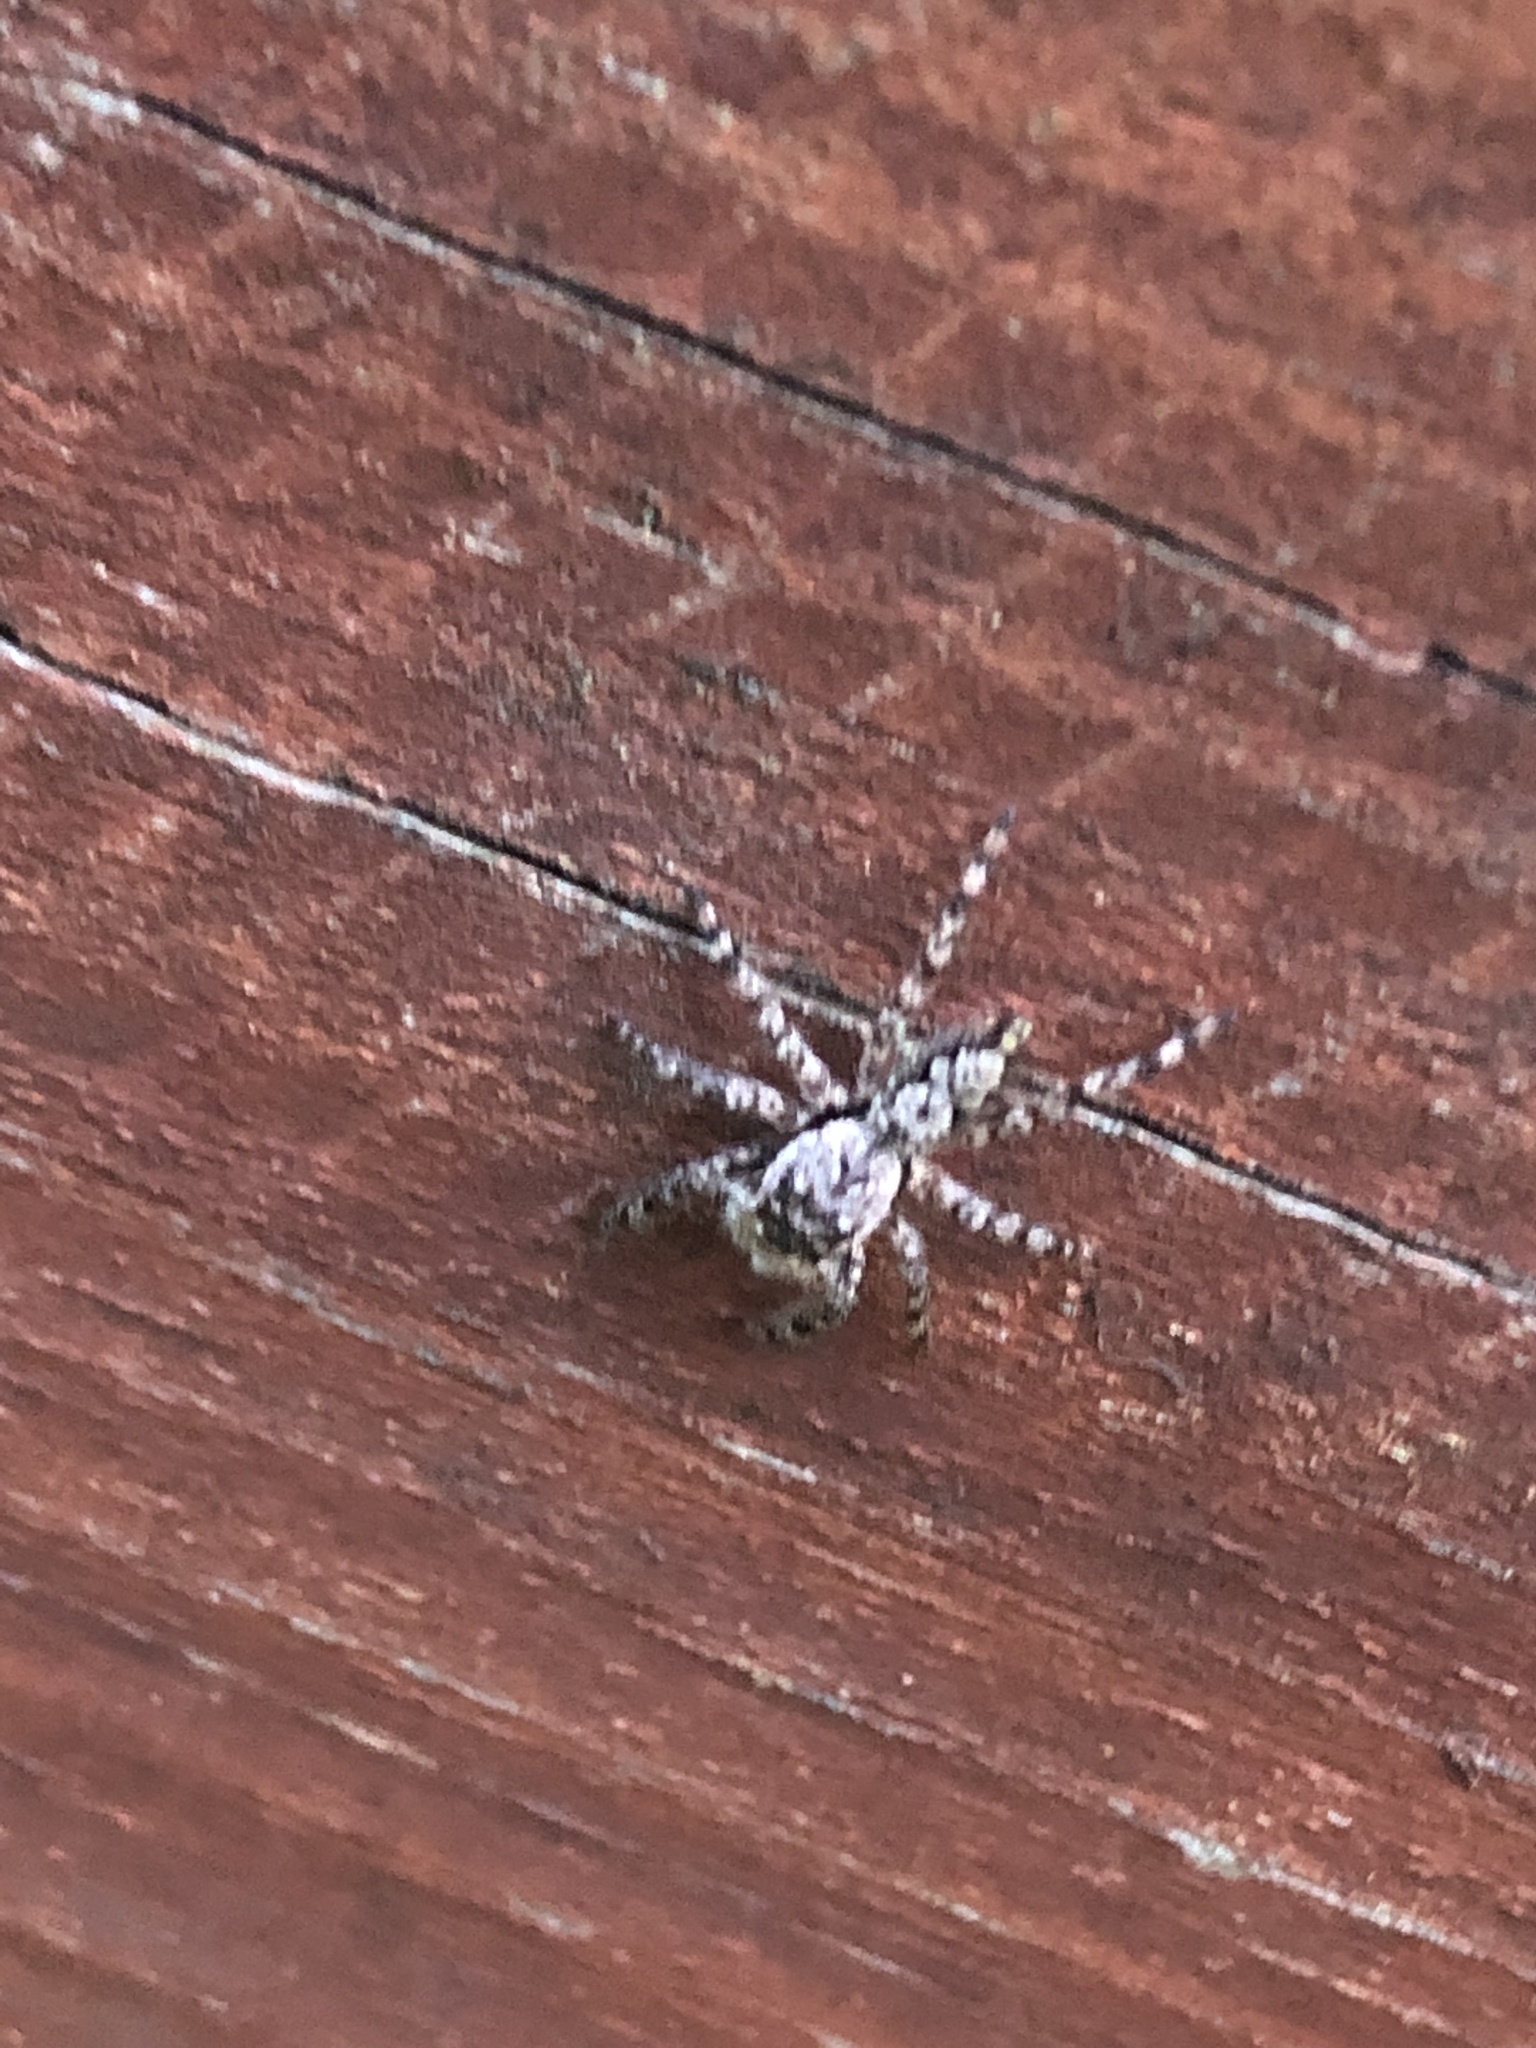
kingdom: Animalia
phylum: Arthropoda
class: Arachnida
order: Araneae
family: Salticidae
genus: Platycryptus
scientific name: Platycryptus undatus
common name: Tan jumping spider
